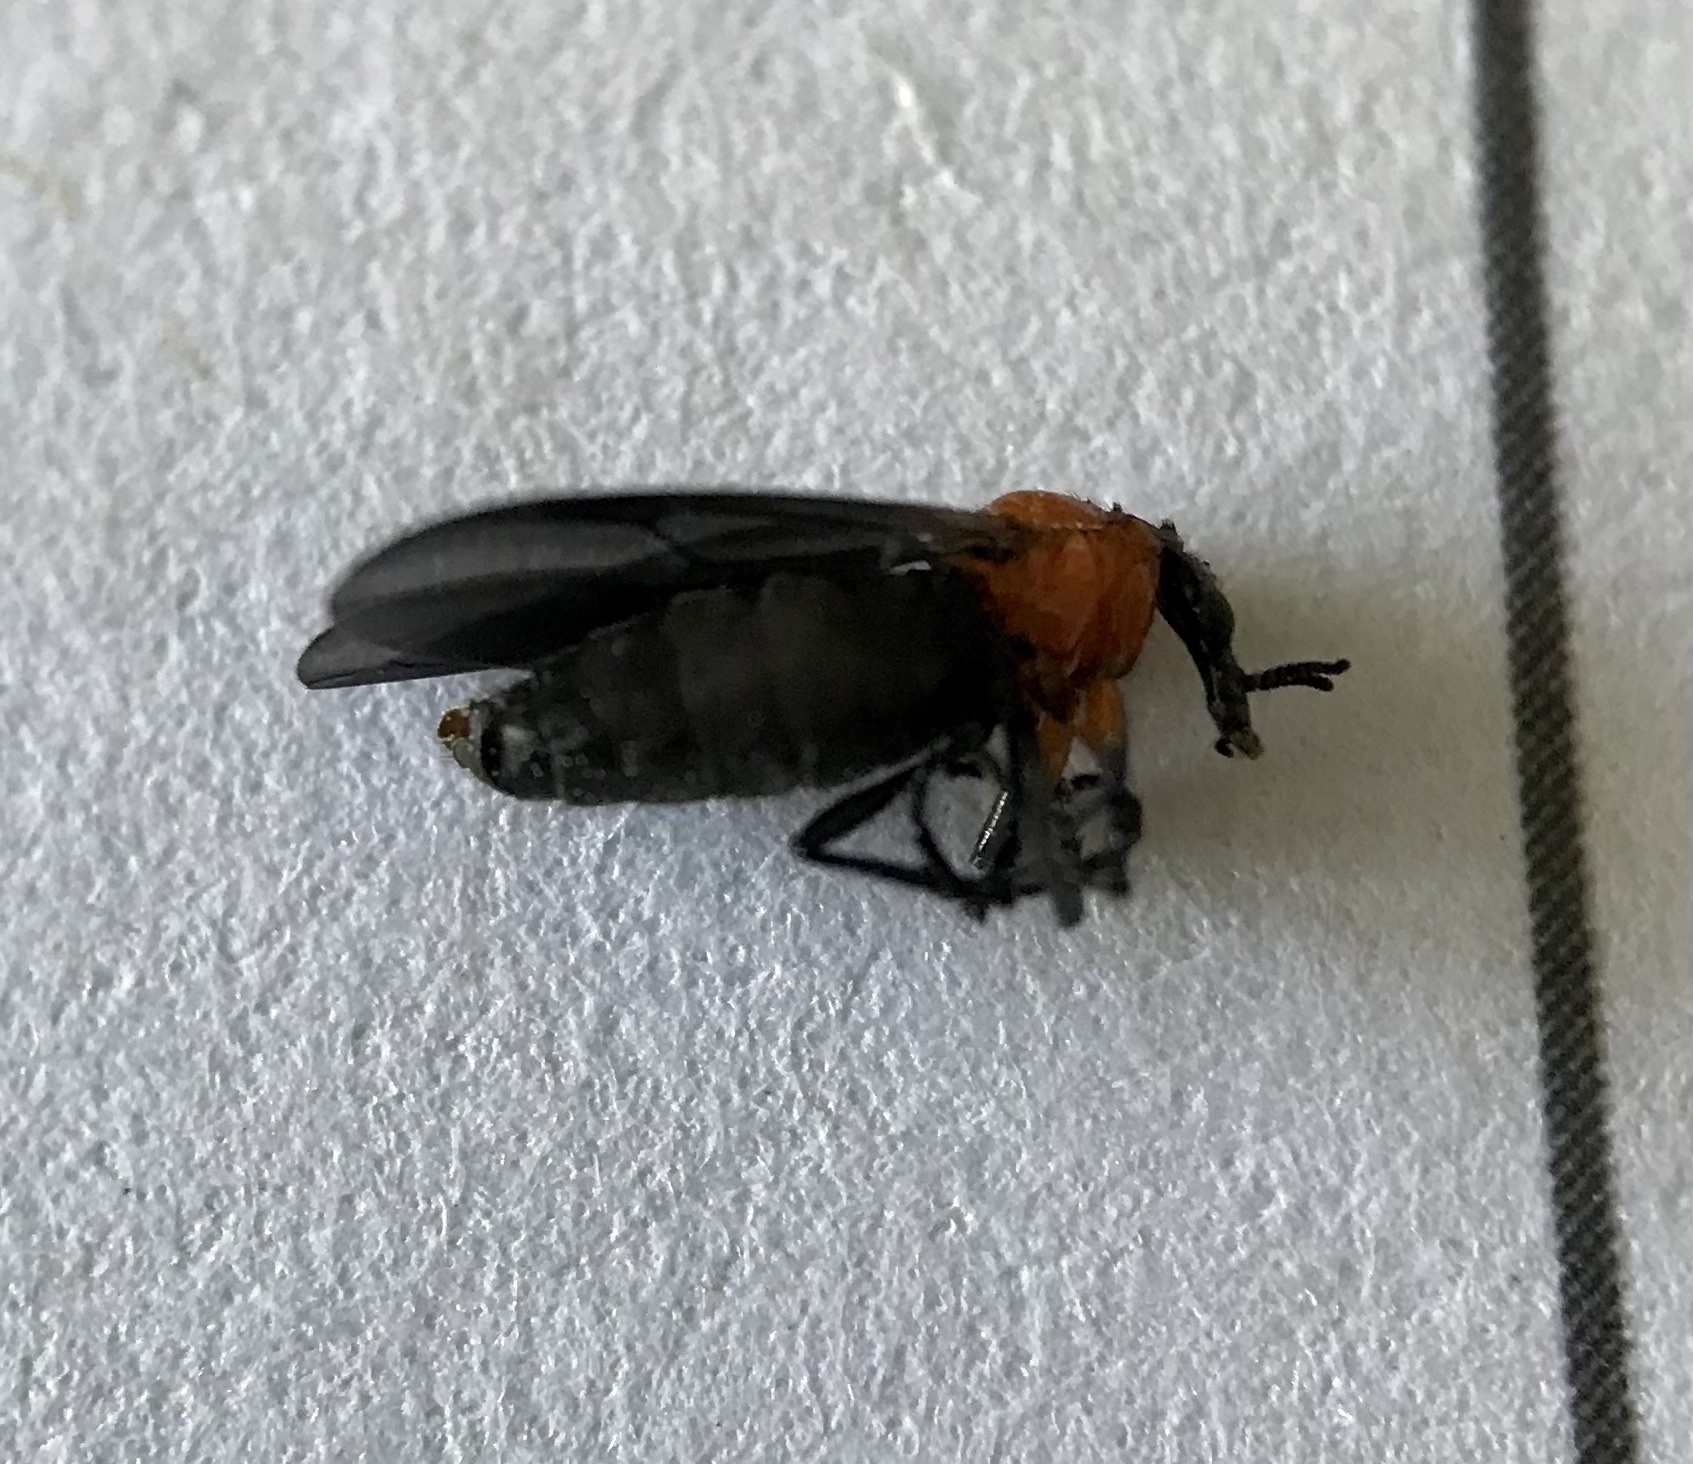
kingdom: Animalia
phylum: Arthropoda
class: Insecta
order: Diptera
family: Bibionidae
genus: Dilophus
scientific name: Dilophus spinipes
